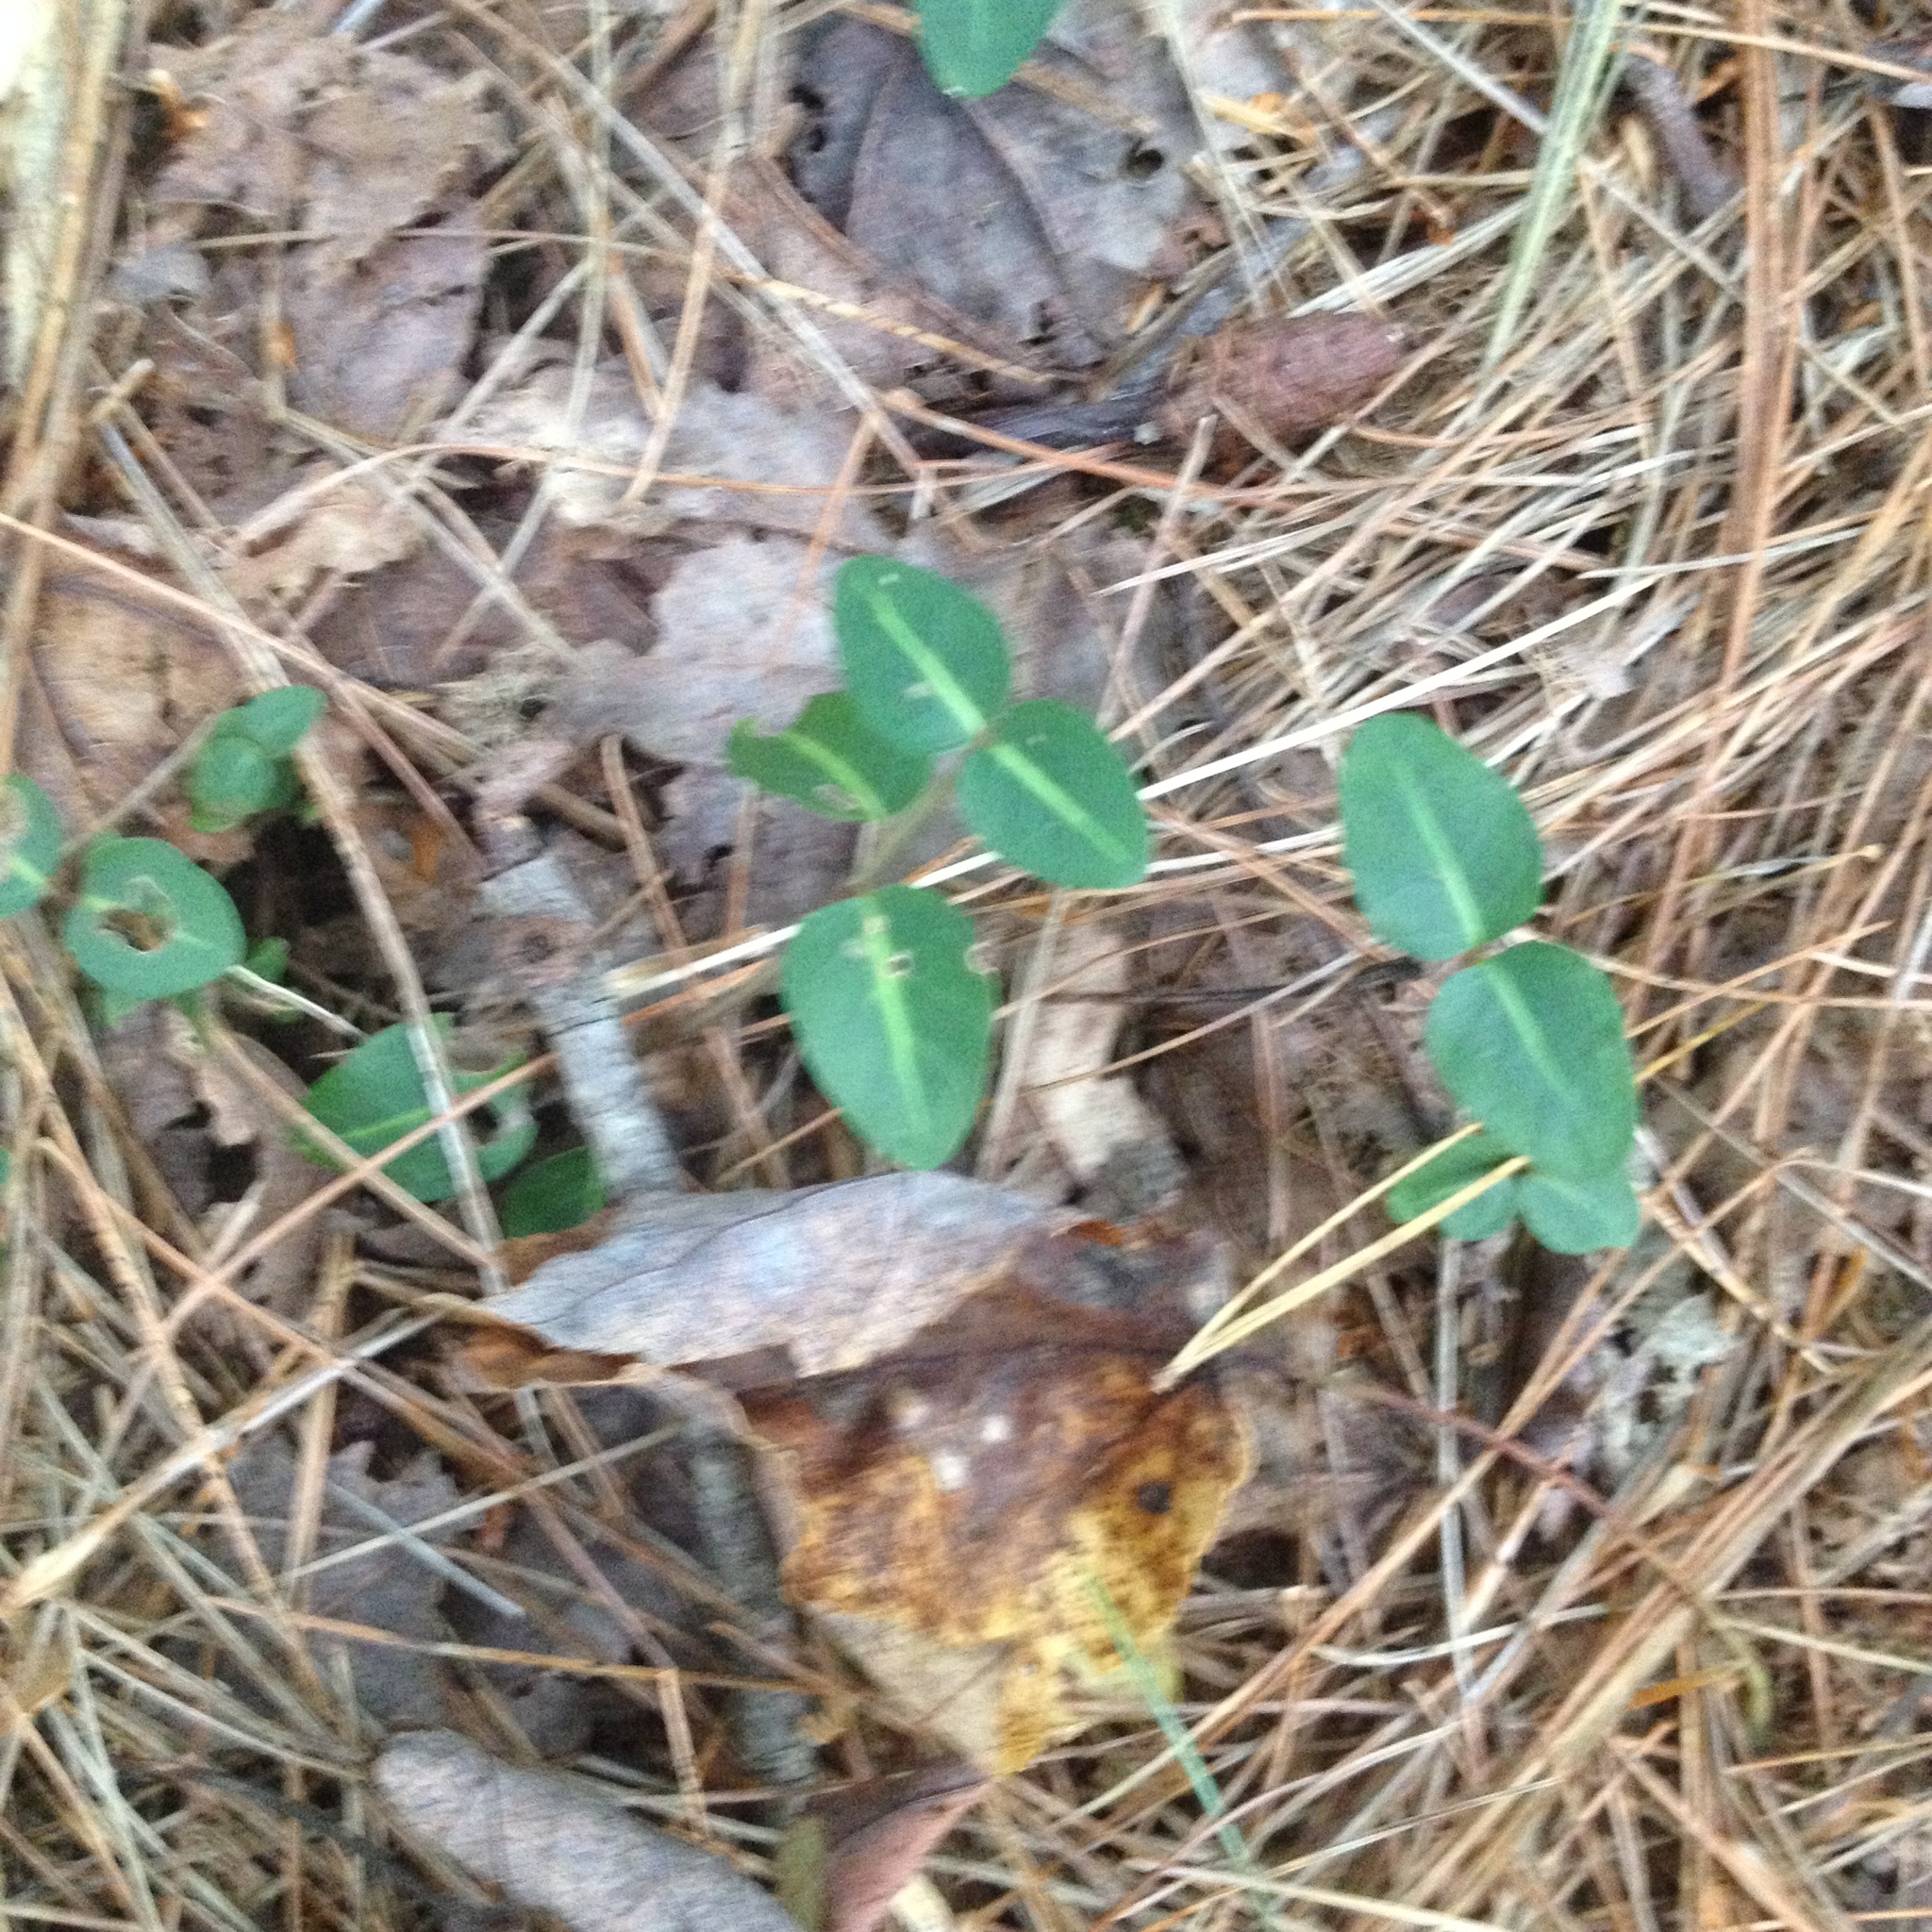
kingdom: Plantae
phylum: Tracheophyta
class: Magnoliopsida
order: Gentianales
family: Rubiaceae
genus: Mitchella
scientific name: Mitchella repens
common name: Partridge-berry
